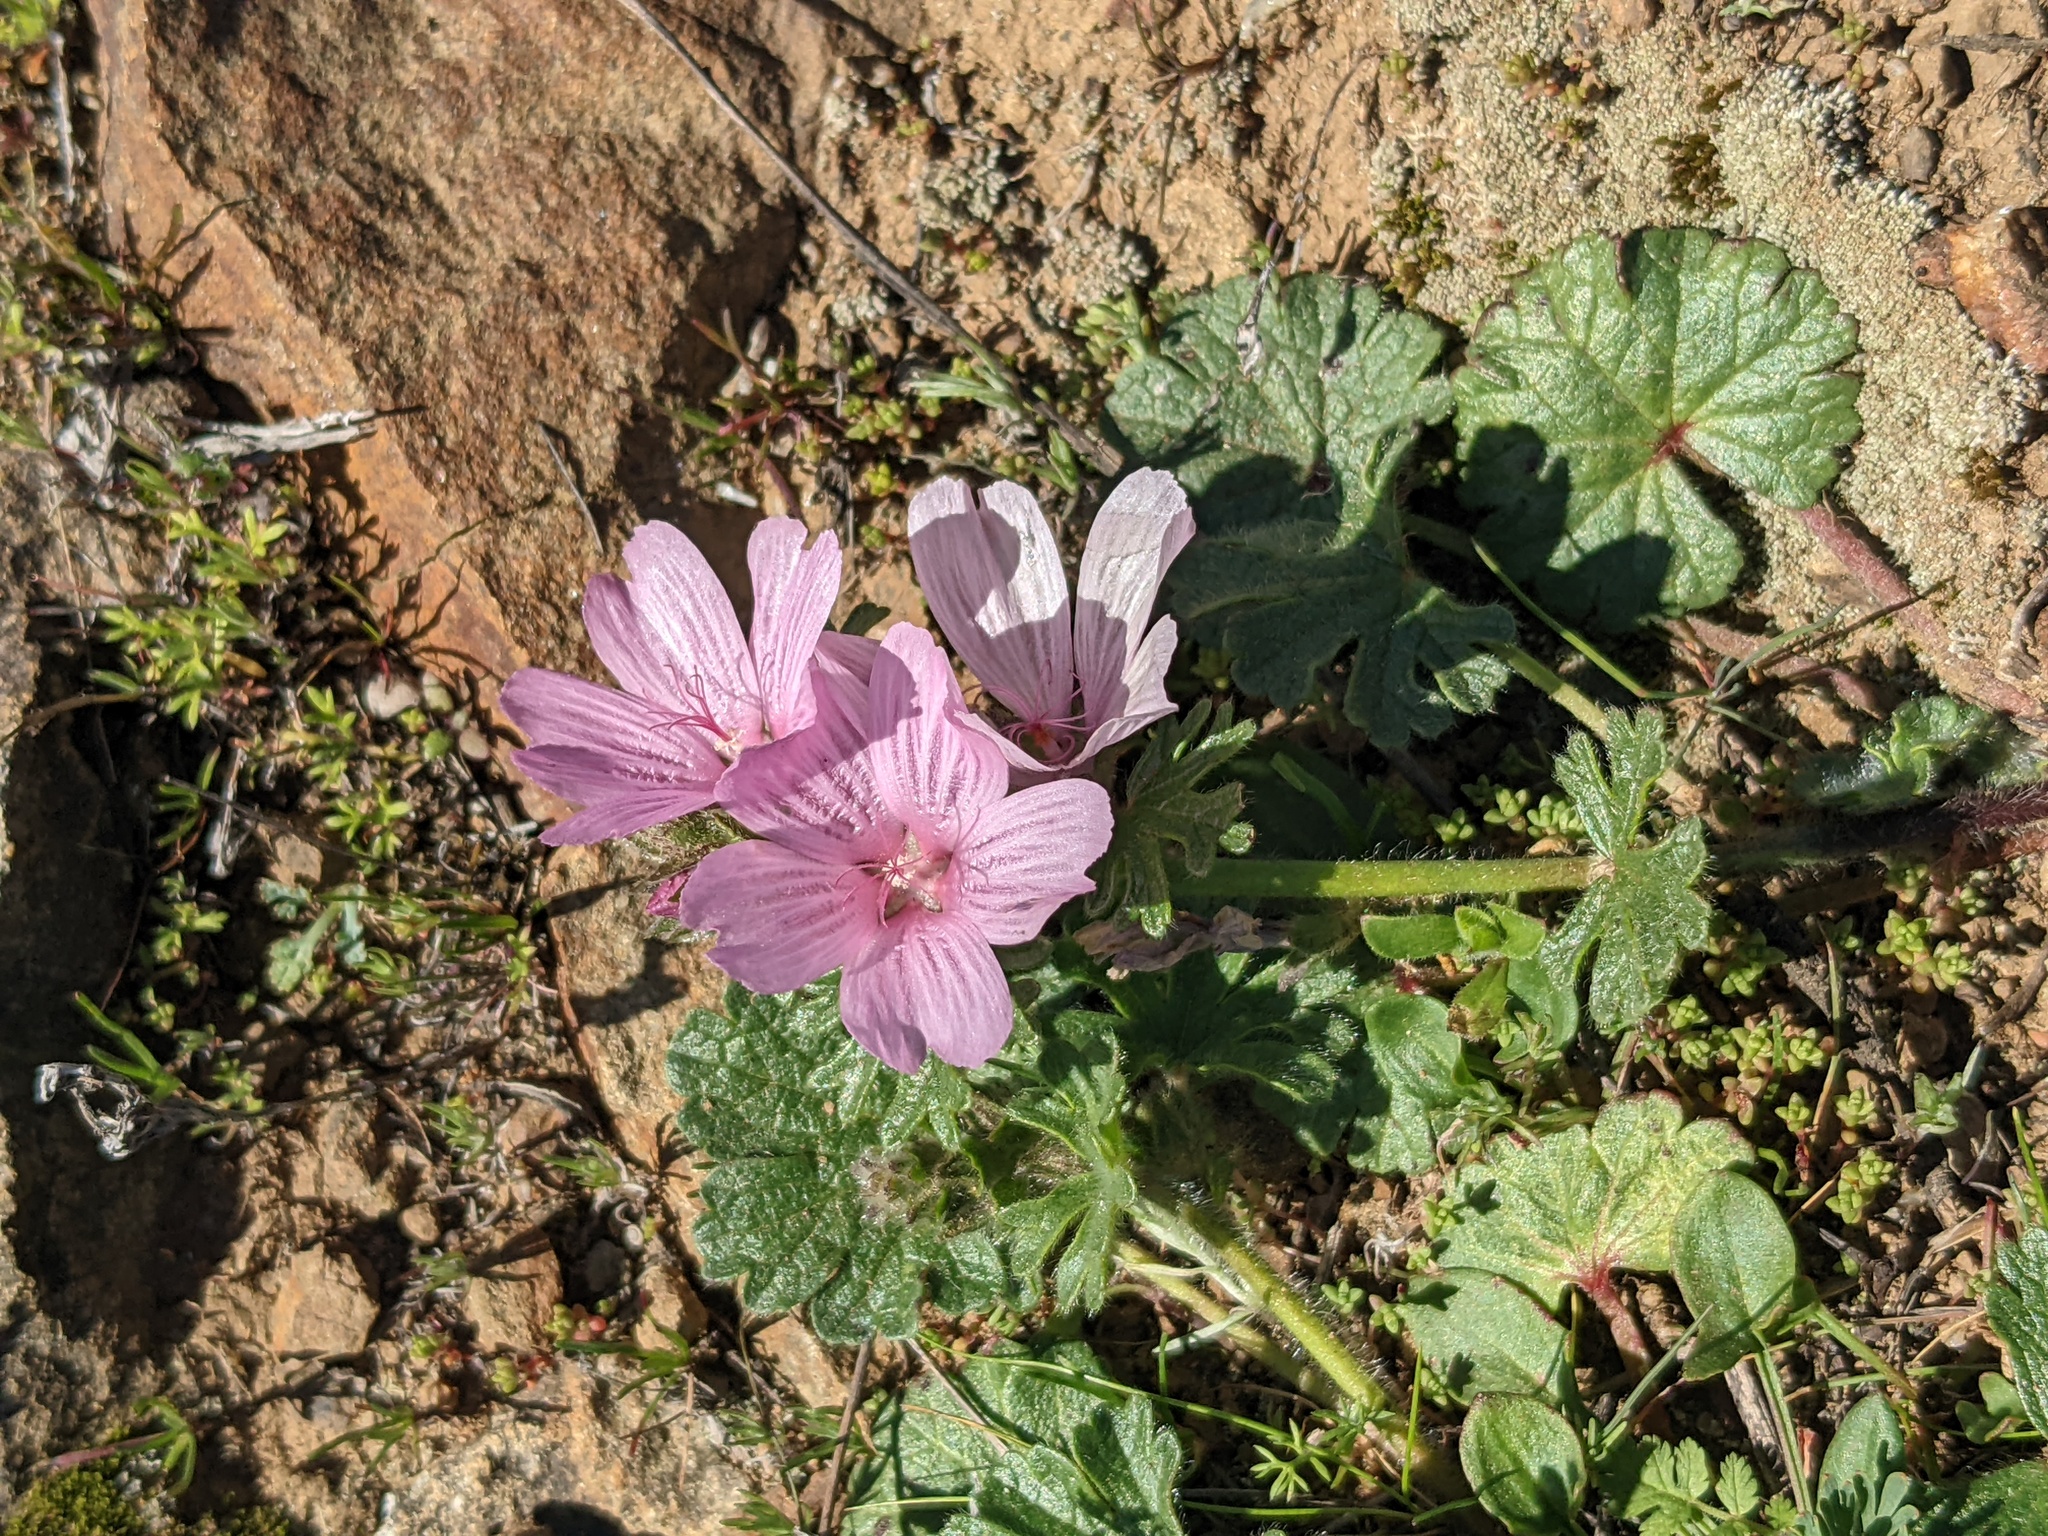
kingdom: Plantae
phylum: Tracheophyta
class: Magnoliopsida
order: Malvales
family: Malvaceae
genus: Sidalcea
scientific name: Sidalcea malviflora
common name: Greek mallow
